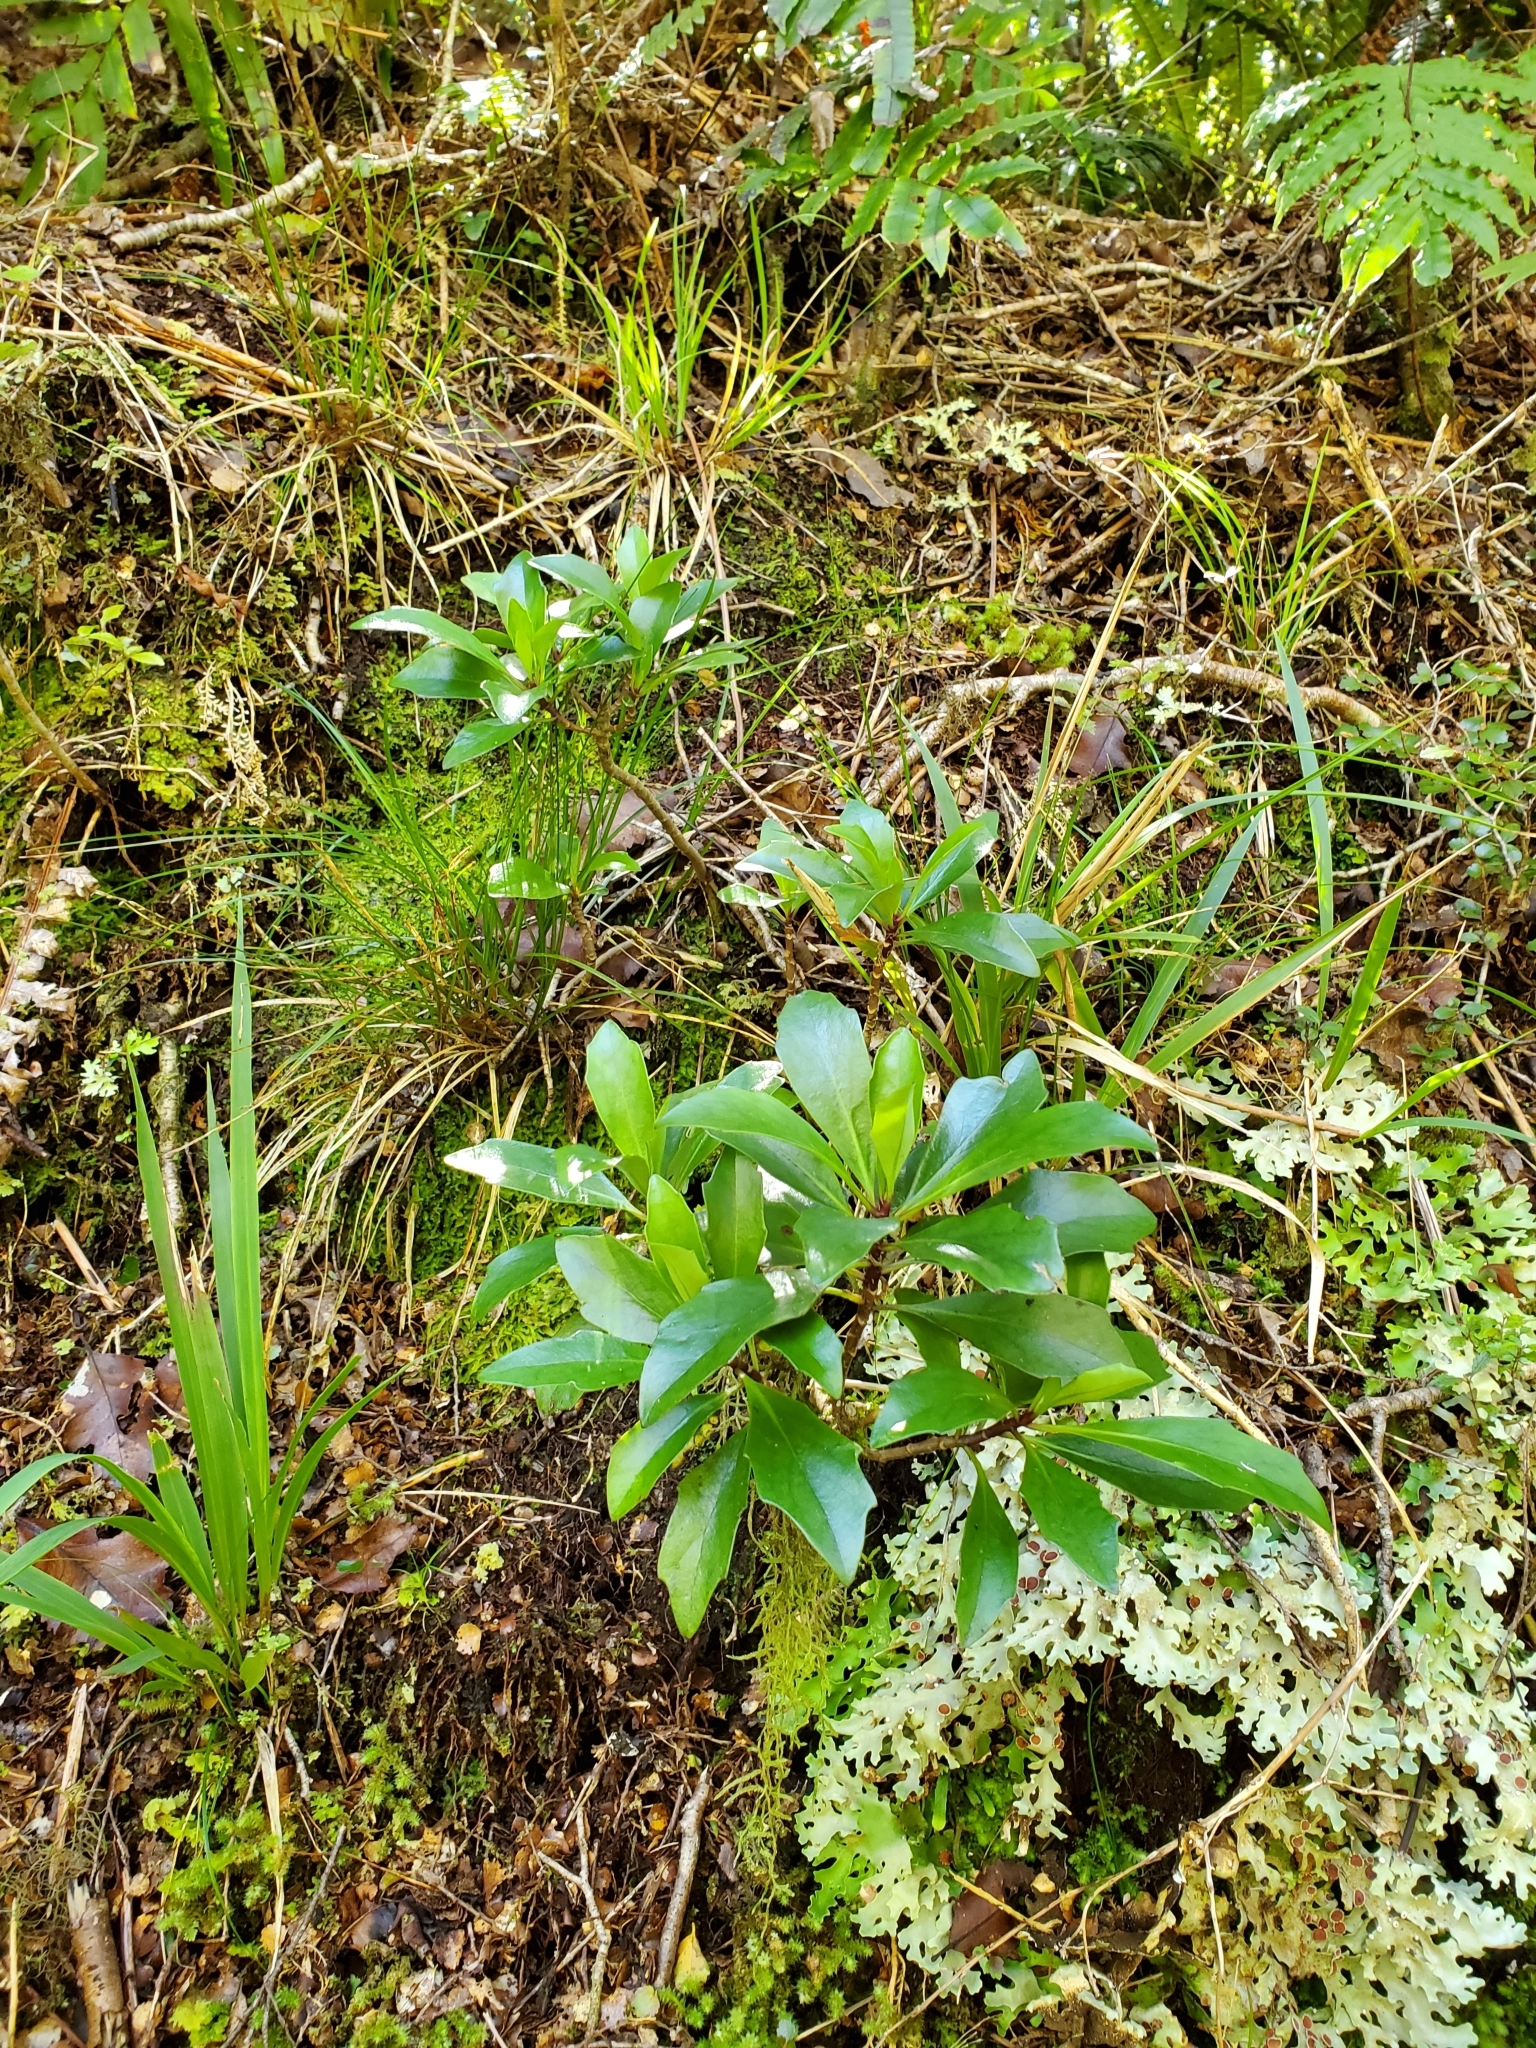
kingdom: Plantae
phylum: Tracheophyta
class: Magnoliopsida
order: Asterales
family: Asteraceae
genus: Brachyglottis
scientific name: Brachyglottis kirkii
